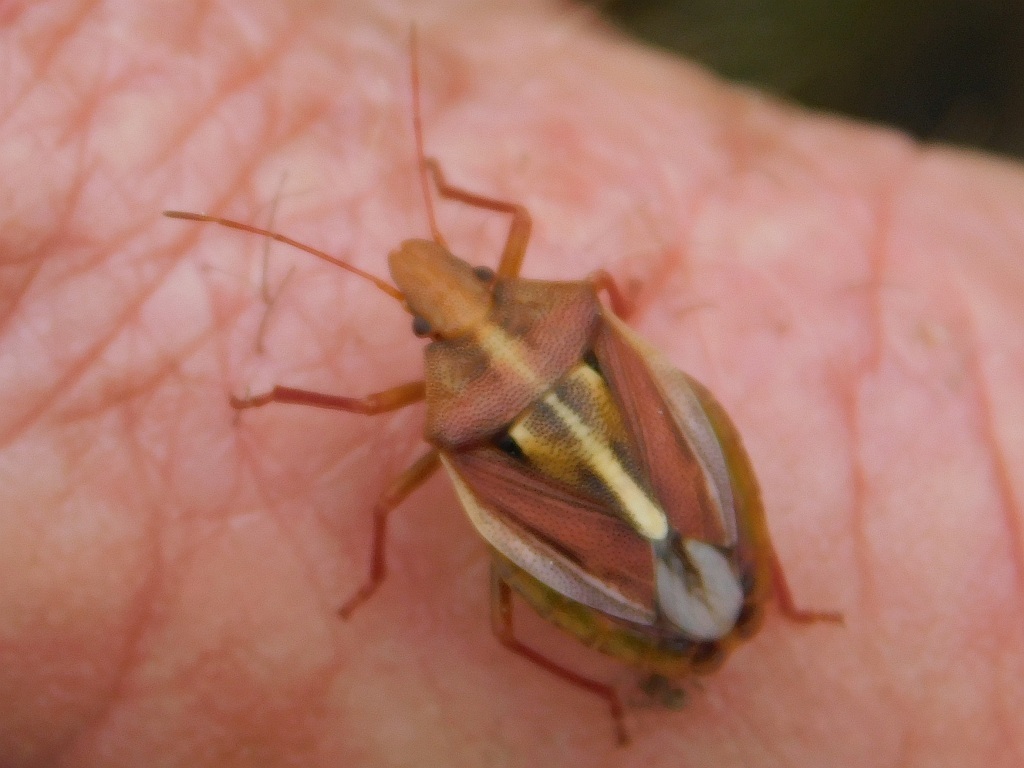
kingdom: Animalia
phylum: Arthropoda
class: Insecta
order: Hemiptera
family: Pentatomidae
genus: Tropicorypha
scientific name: Tropicorypha
